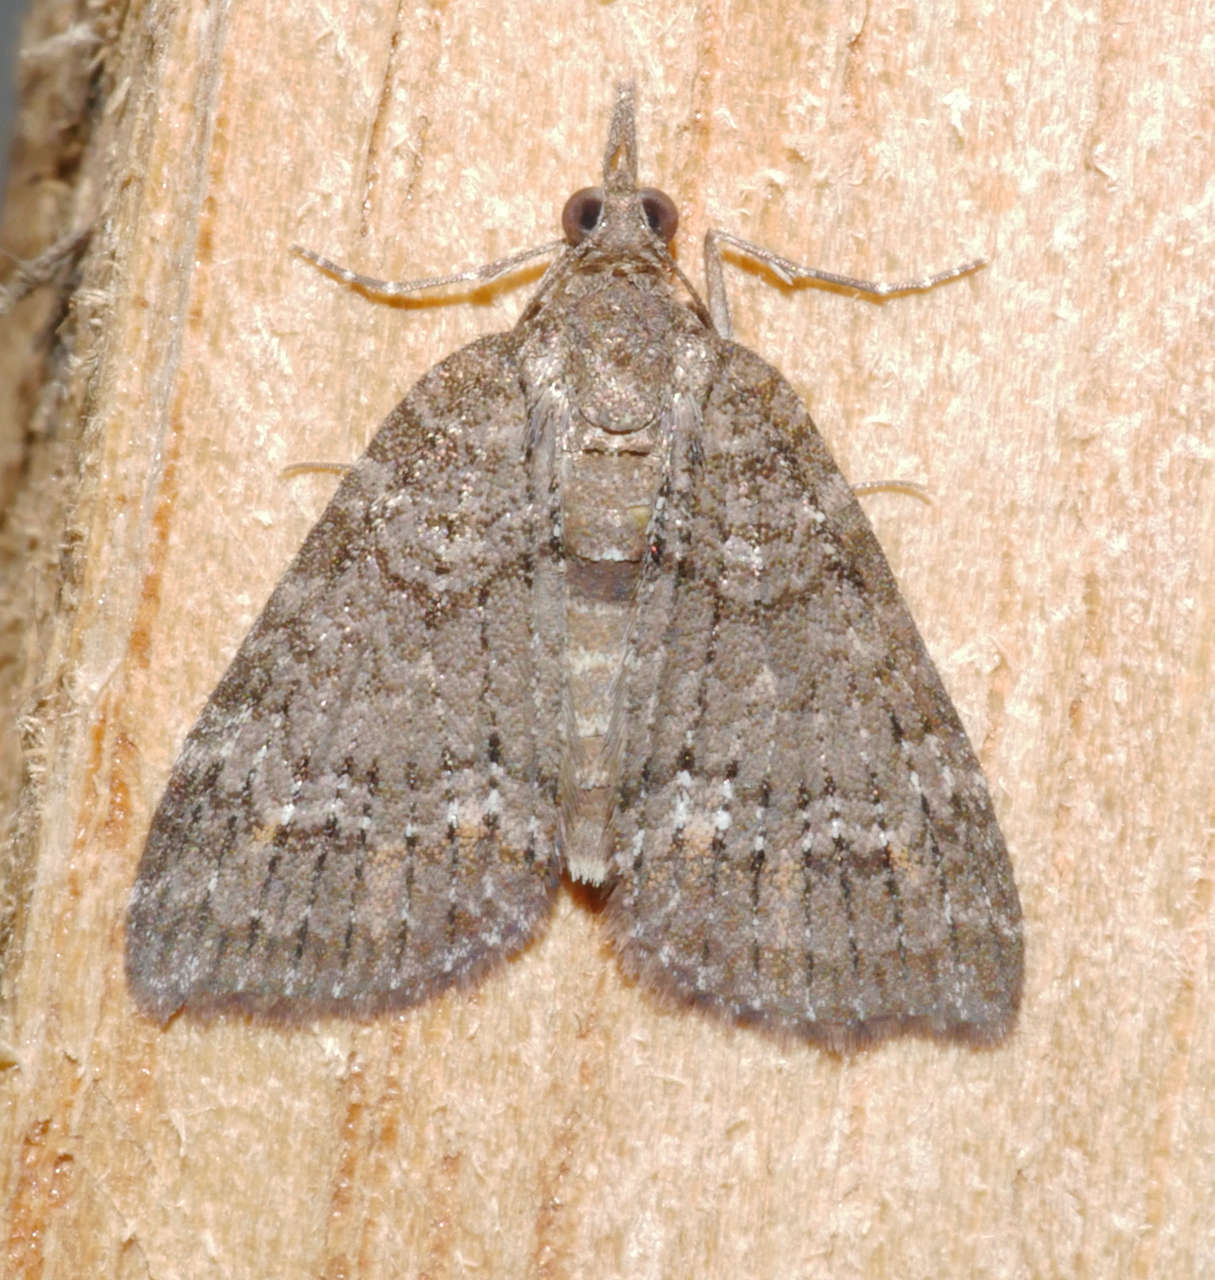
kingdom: Animalia
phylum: Arthropoda
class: Insecta
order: Lepidoptera
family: Geometridae
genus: Microdes
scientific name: Microdes squamulata
